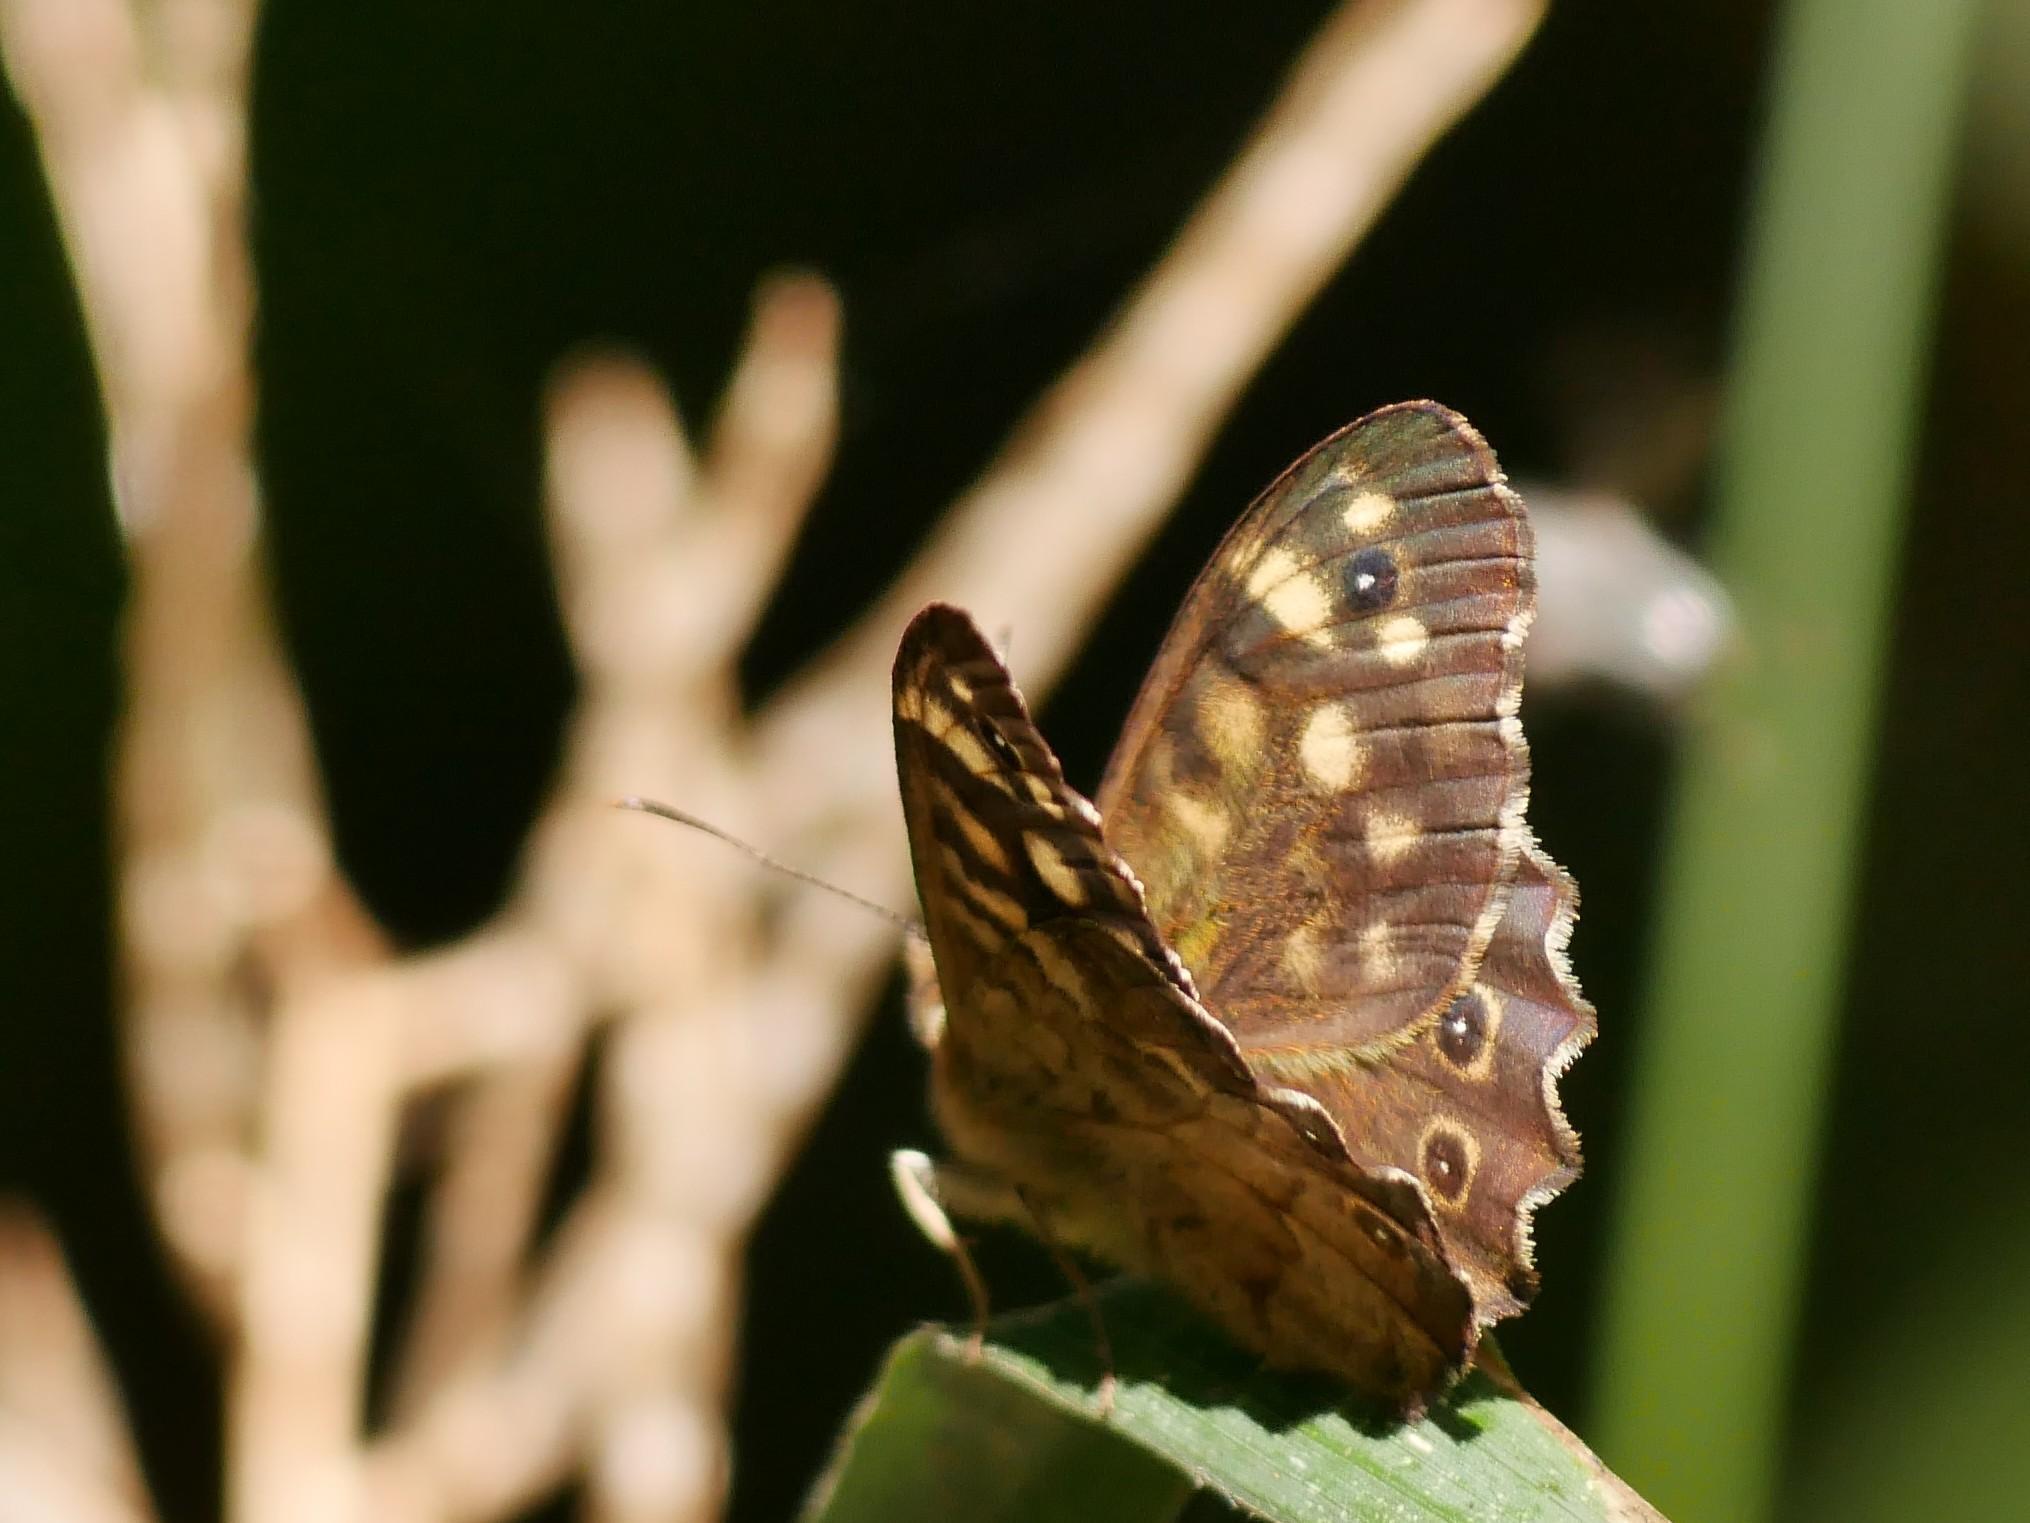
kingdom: Animalia
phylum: Arthropoda
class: Insecta
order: Lepidoptera
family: Nymphalidae
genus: Pararge
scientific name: Pararge aegeria
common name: Speckled wood
